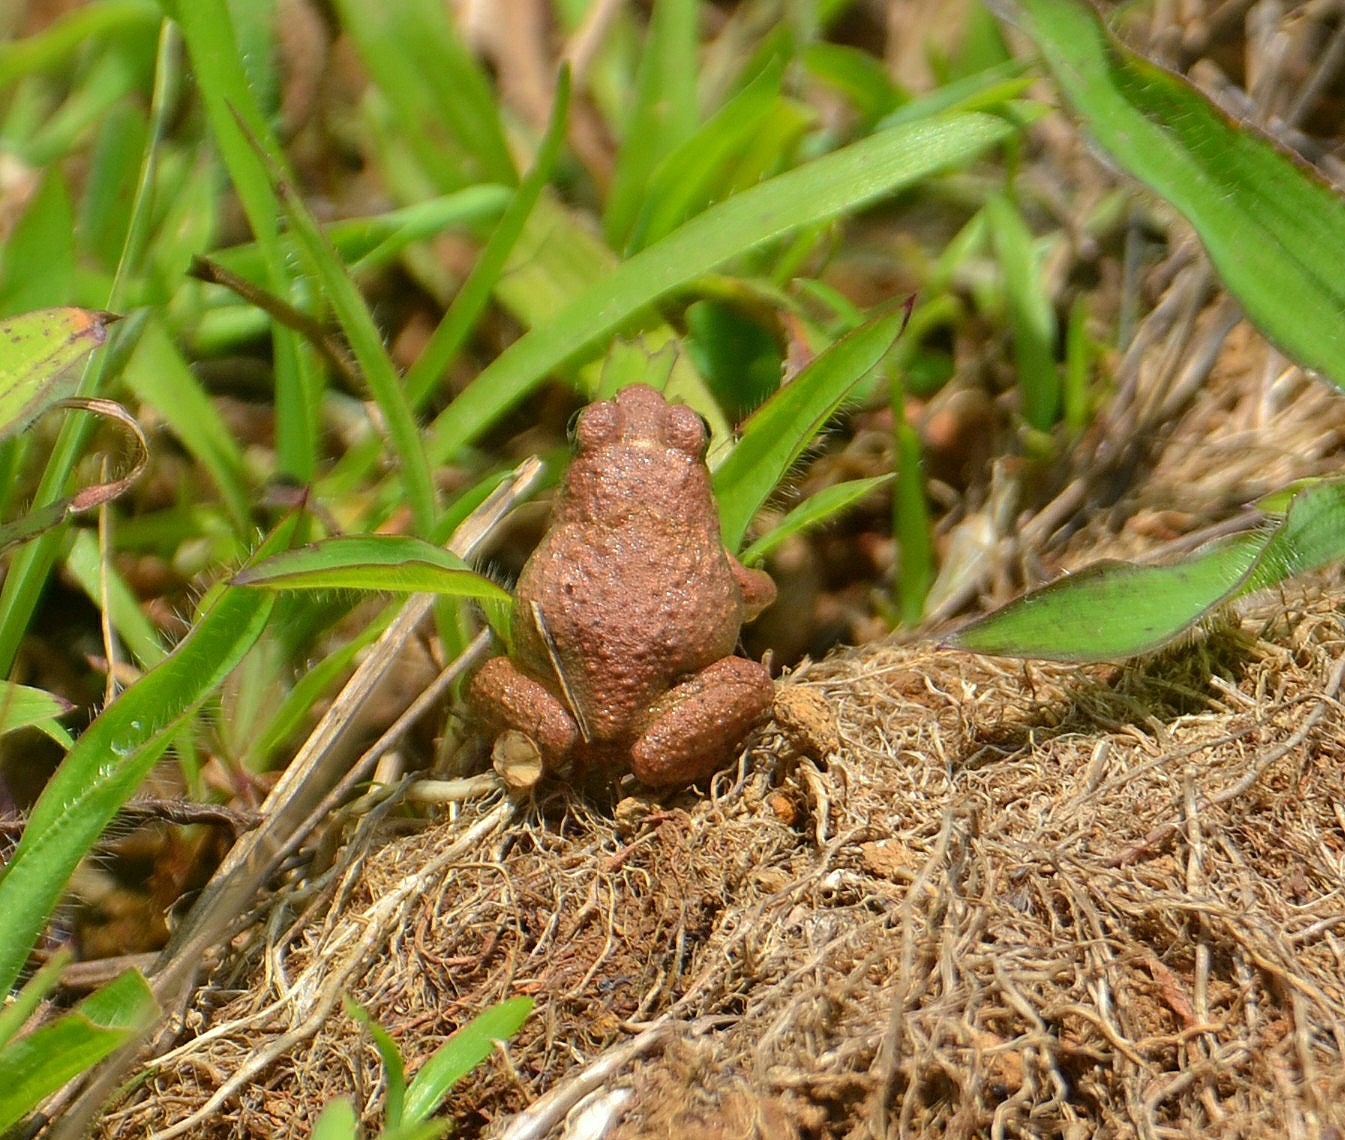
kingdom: Animalia
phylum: Chordata
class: Amphibia
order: Anura
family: Dicroglossidae
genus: Minervarya
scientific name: Minervarya rufescens
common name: Malabar wart frog
